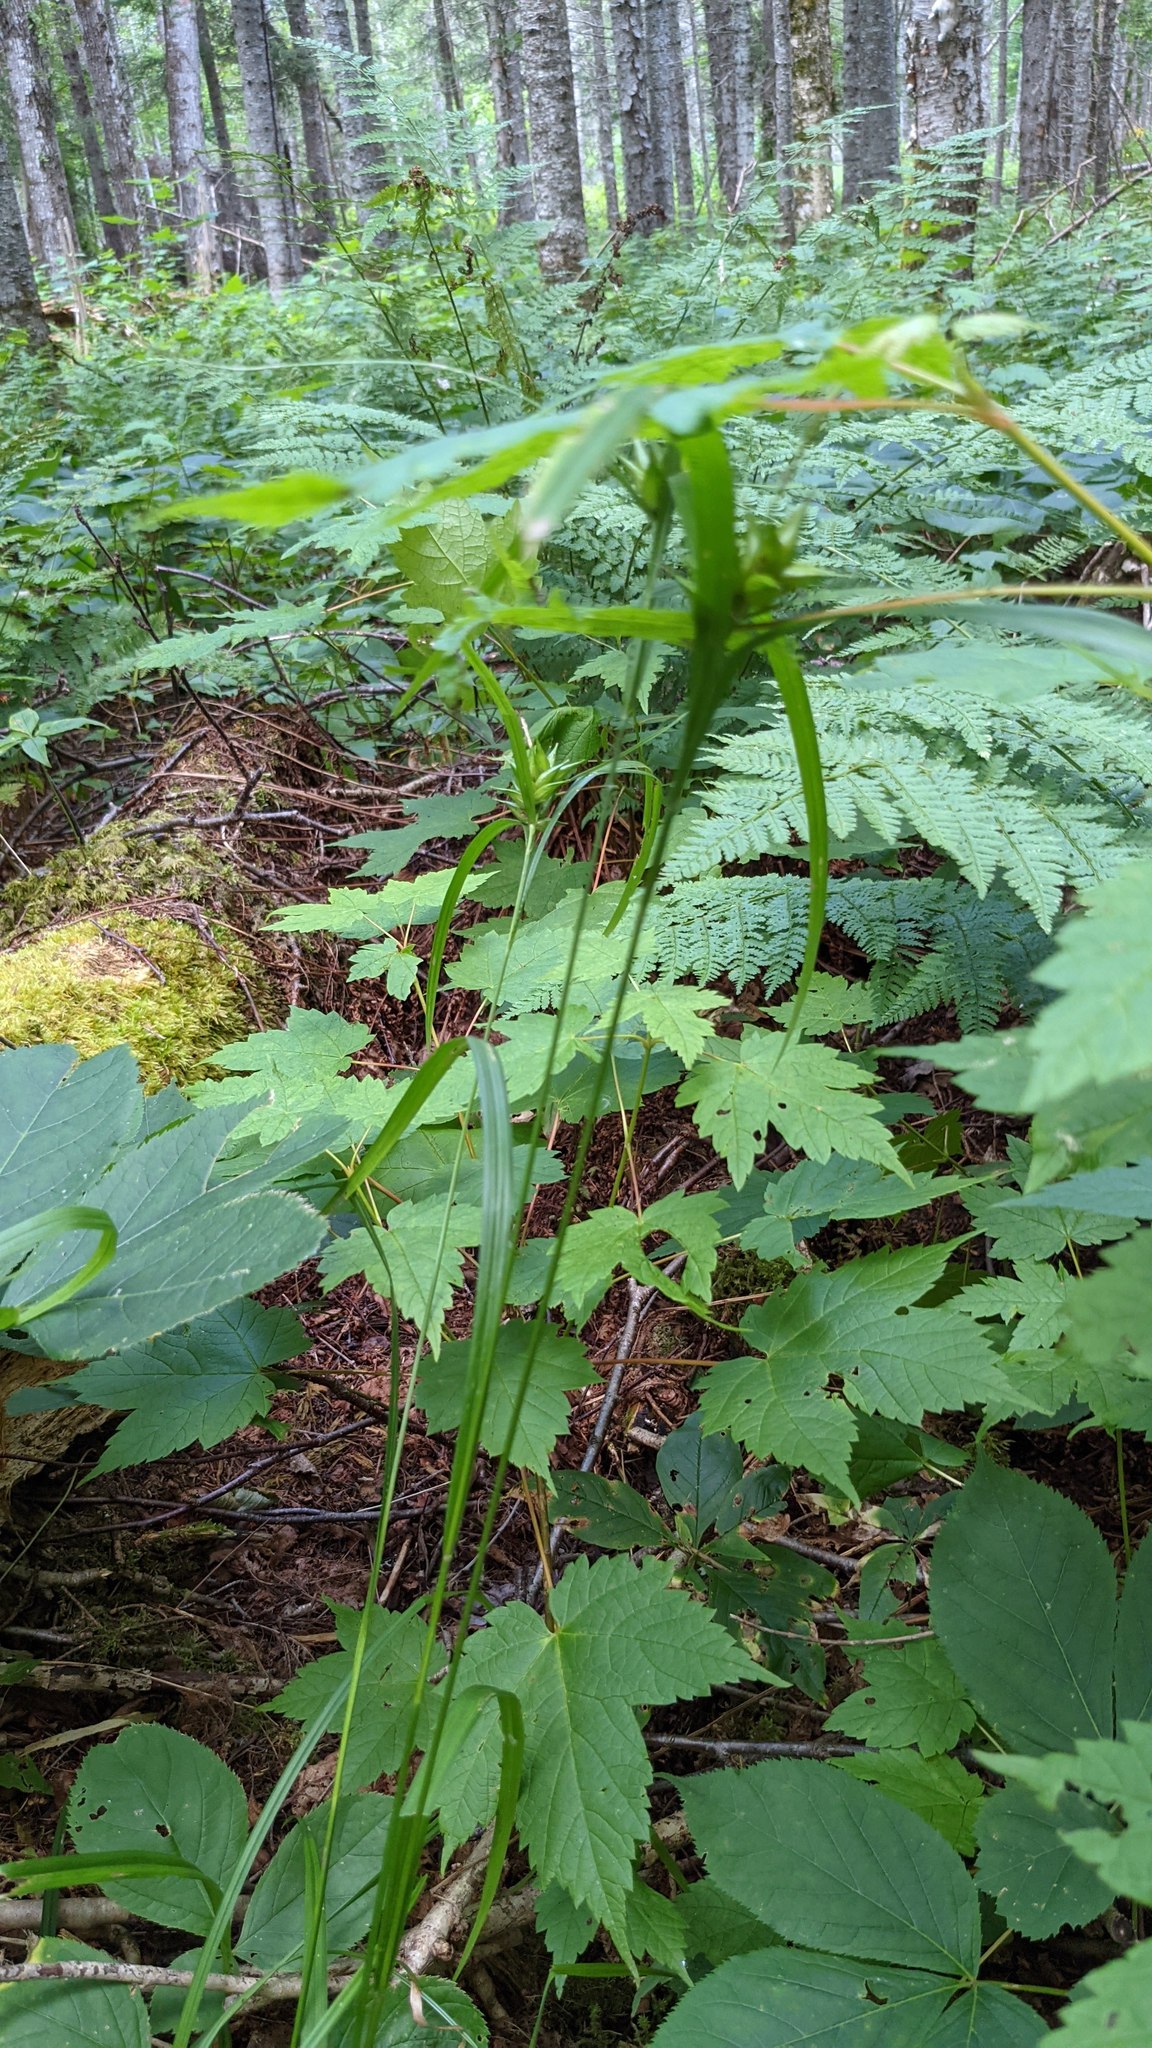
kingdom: Plantae
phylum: Tracheophyta
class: Liliopsida
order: Poales
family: Cyperaceae
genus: Carex
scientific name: Carex intumescens
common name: Greater bladder sedge
